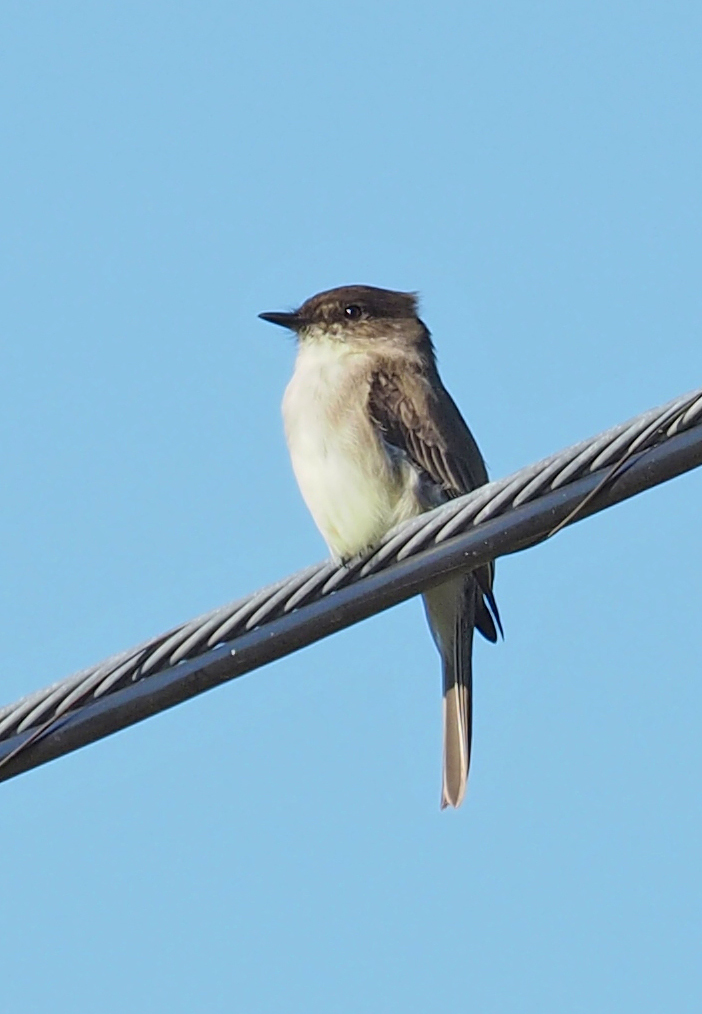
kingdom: Animalia
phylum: Chordata
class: Aves
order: Passeriformes
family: Tyrannidae
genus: Sayornis
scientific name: Sayornis phoebe
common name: Eastern phoebe
